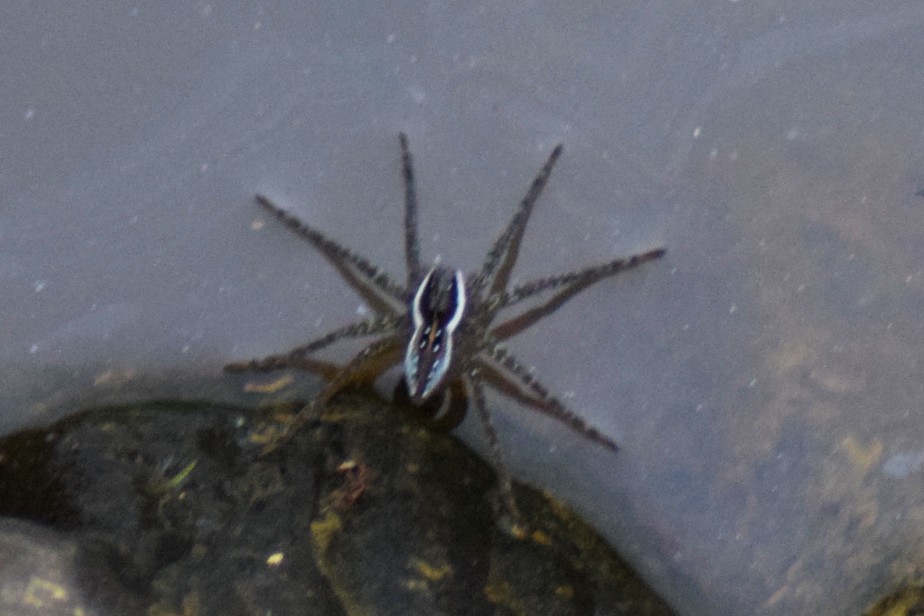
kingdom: Animalia
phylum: Arthropoda
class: Arachnida
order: Araneae
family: Pisauridae
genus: Dolomedes
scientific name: Dolomedes triton
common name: Six-spotted fishing spider
